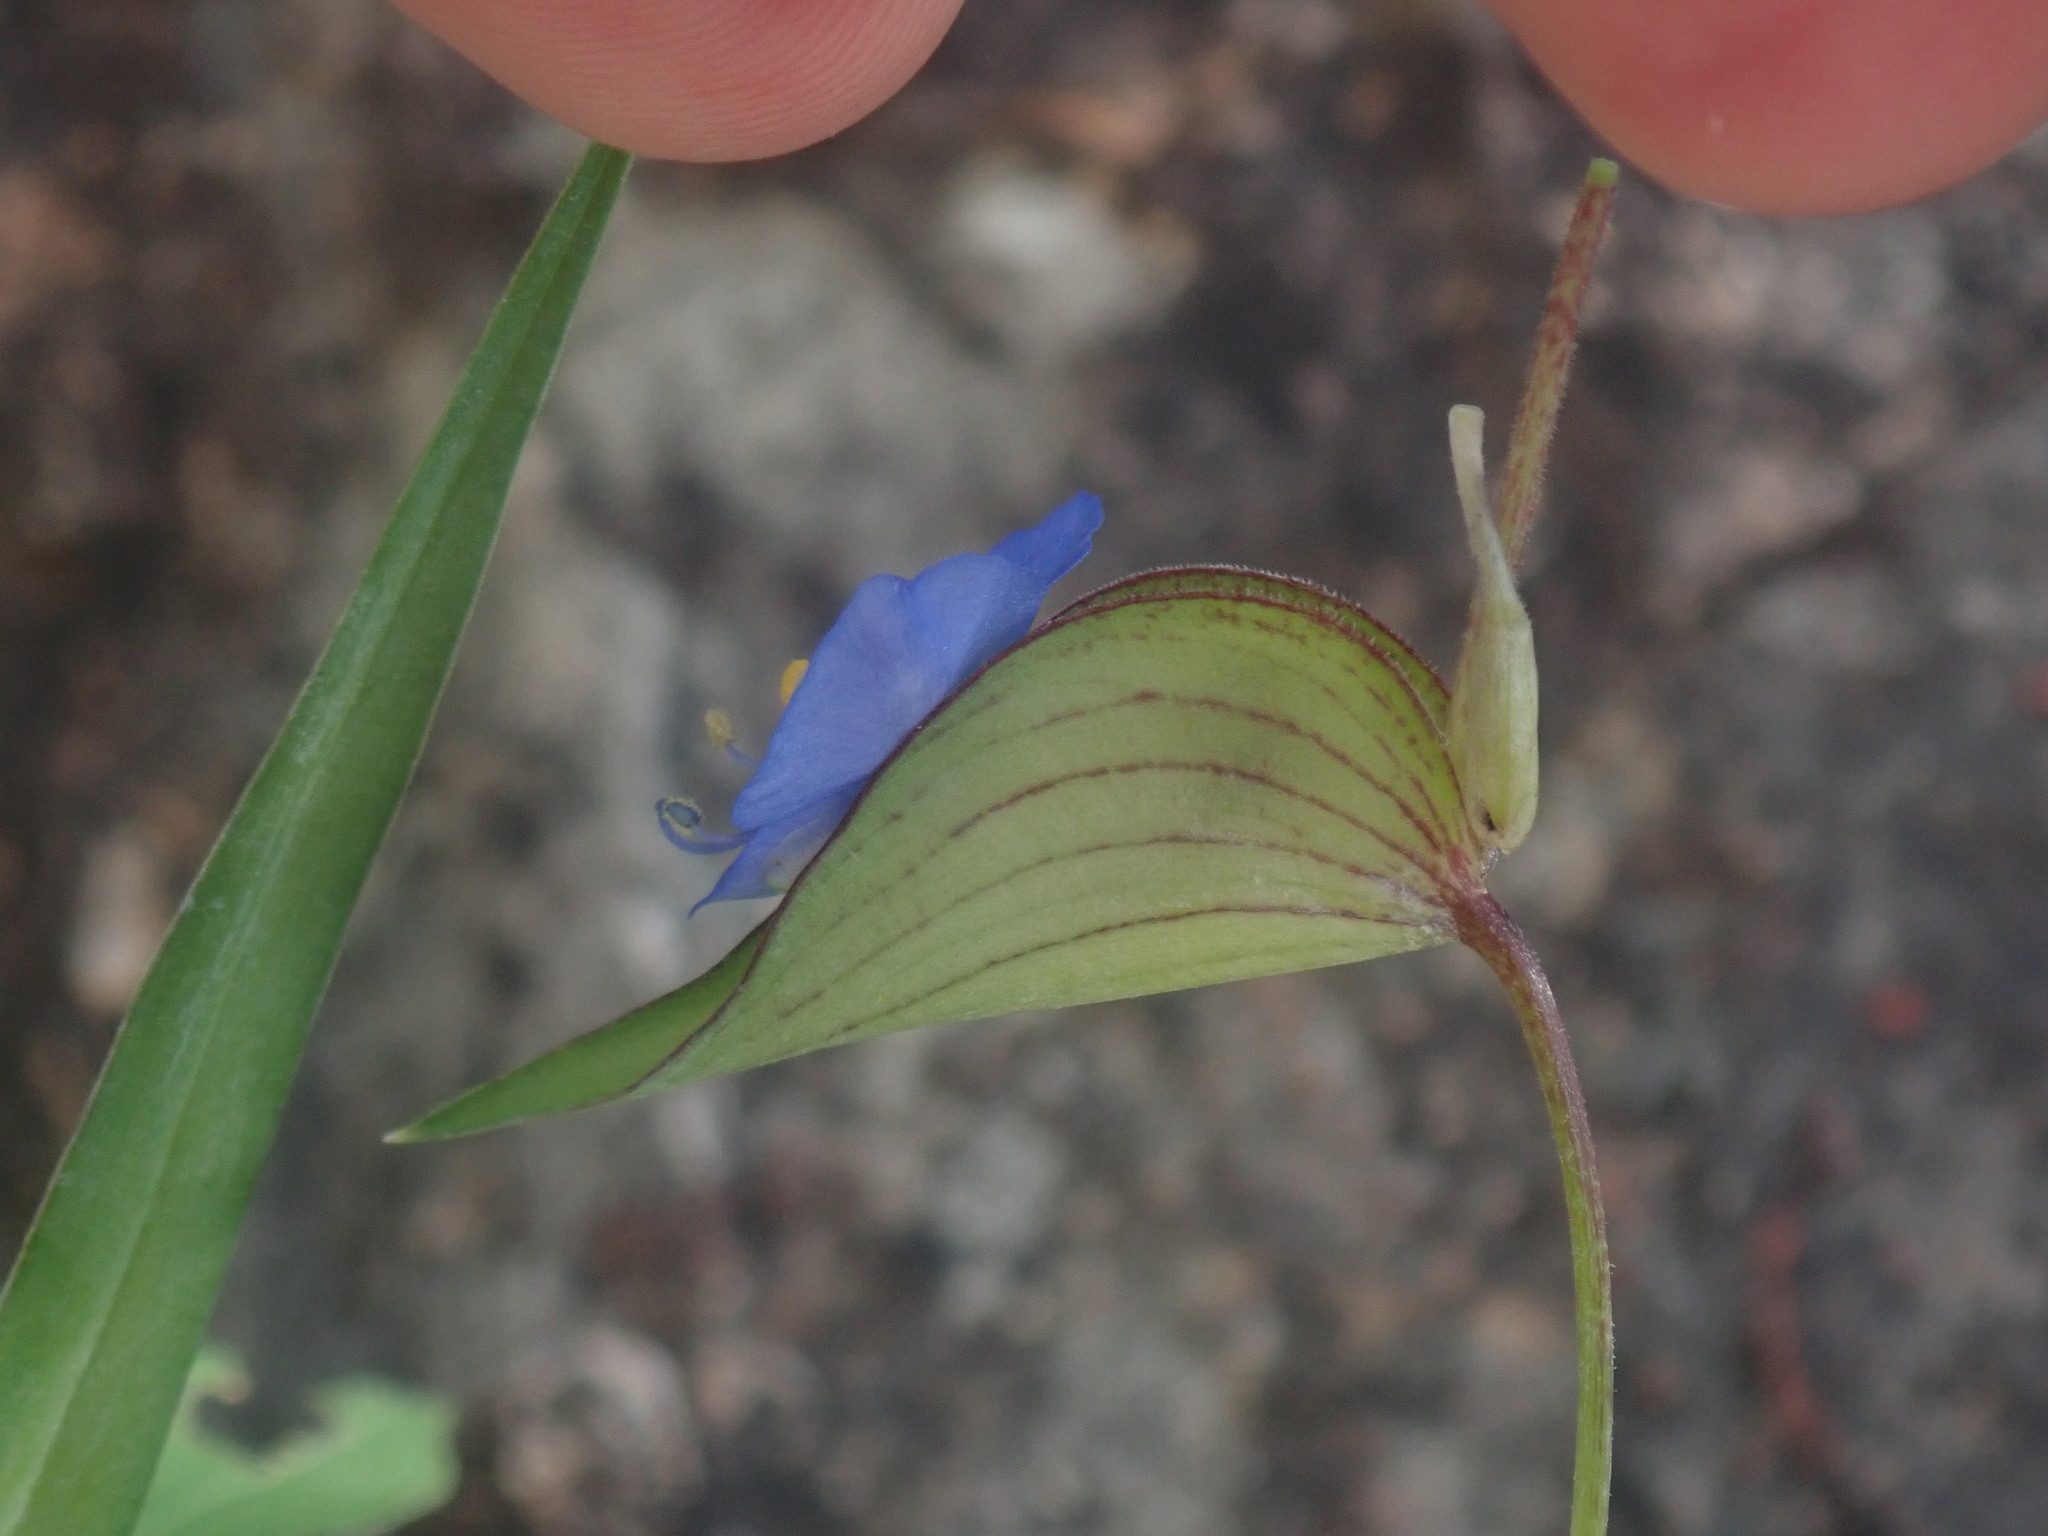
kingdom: Plantae
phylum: Tracheophyta
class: Liliopsida
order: Commelinales
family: Commelinaceae
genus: Commelina
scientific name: Commelina dianthifolia
